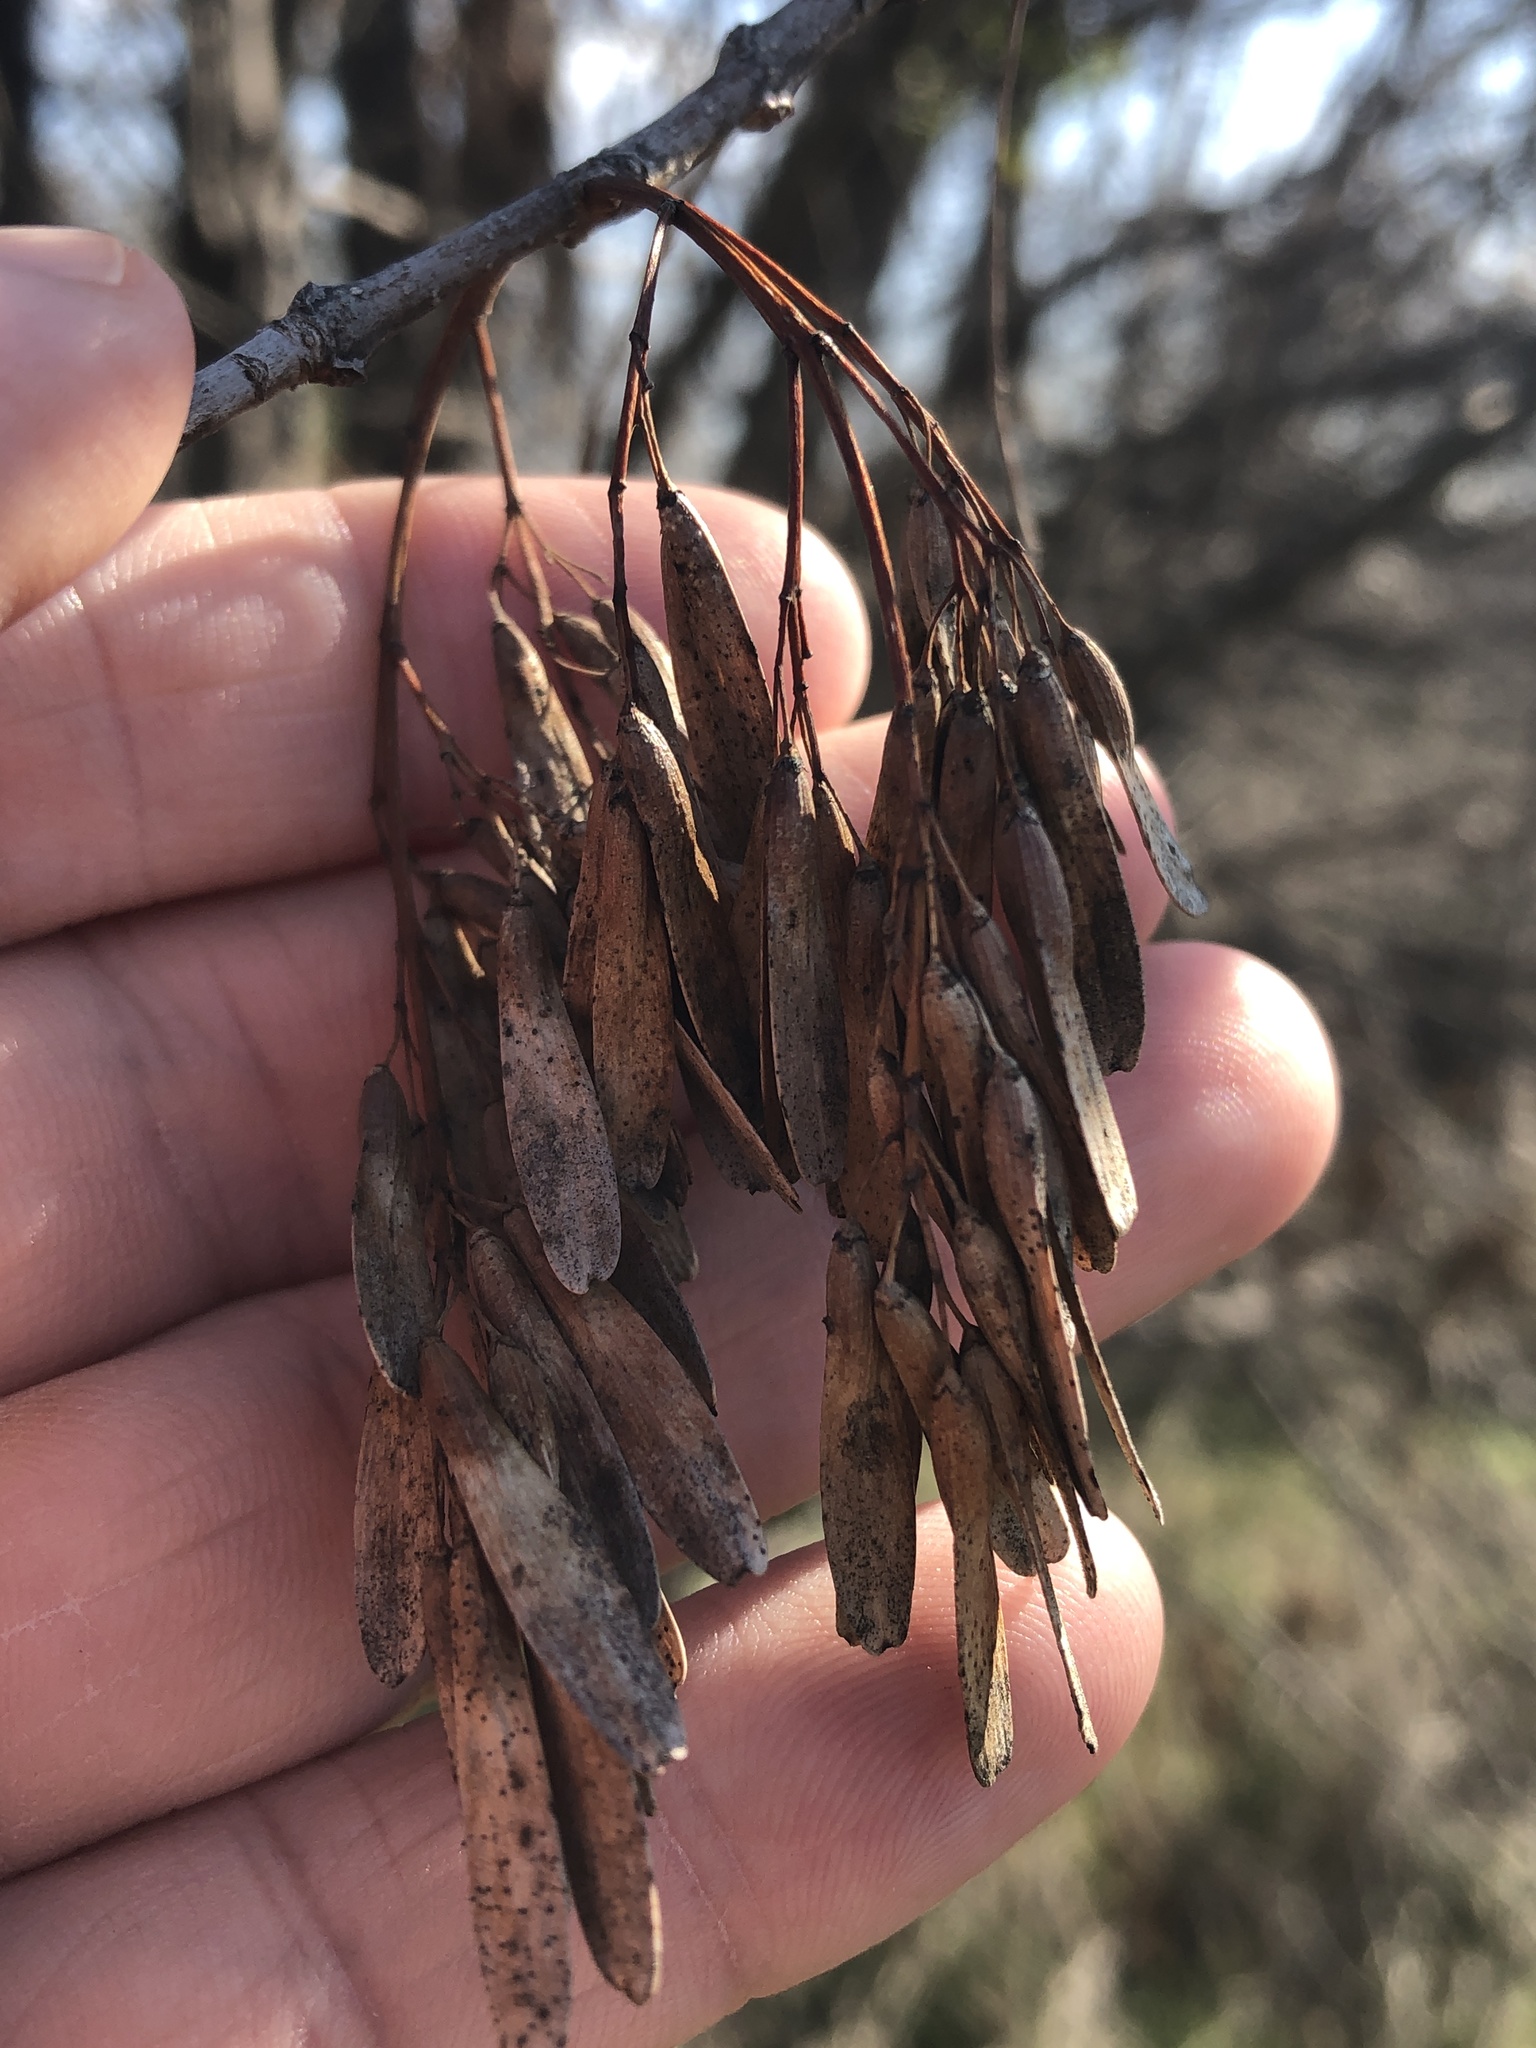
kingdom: Plantae
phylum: Tracheophyta
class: Magnoliopsida
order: Lamiales
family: Oleaceae
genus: Fraxinus
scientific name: Fraxinus pennsylvanica
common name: Green ash
